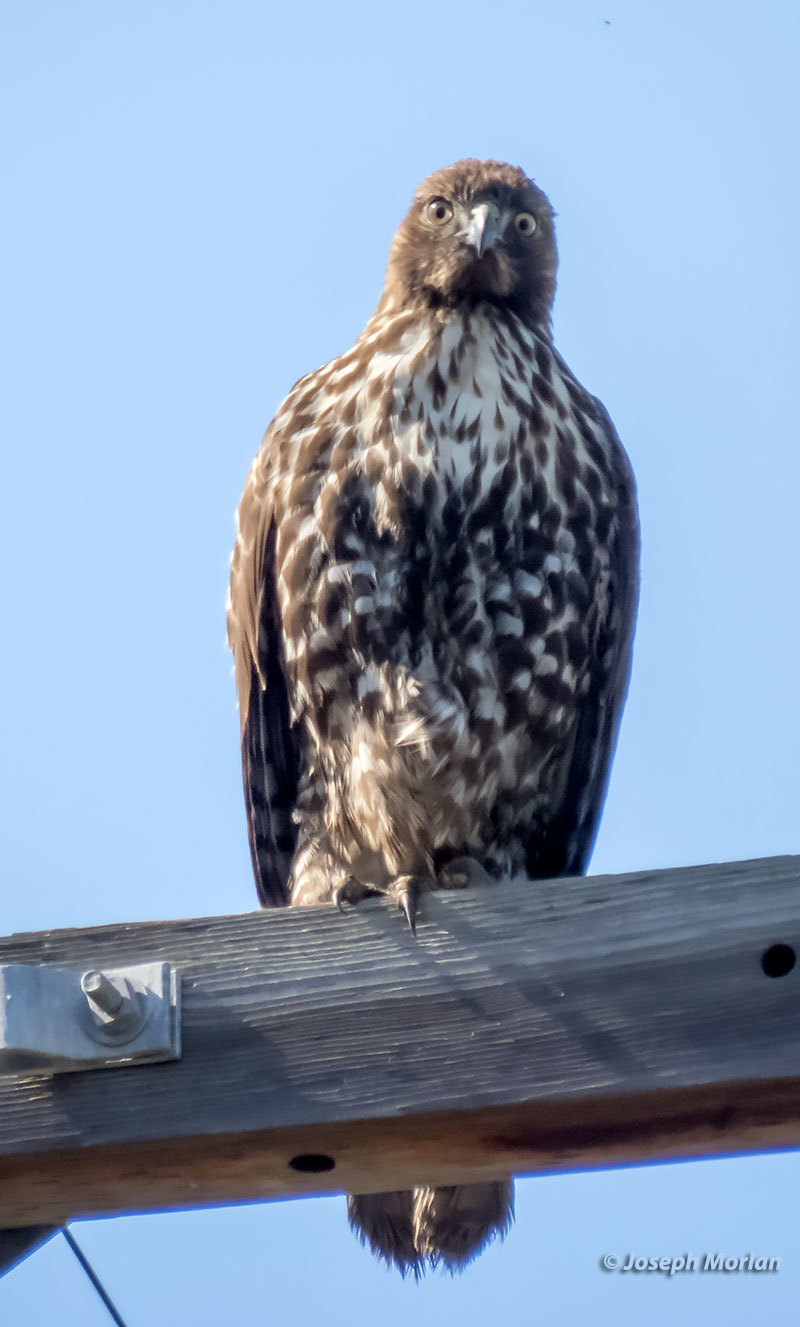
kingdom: Animalia
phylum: Chordata
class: Aves
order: Accipitriformes
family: Accipitridae
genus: Buteo
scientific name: Buteo jamaicensis
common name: Red-tailed hawk
